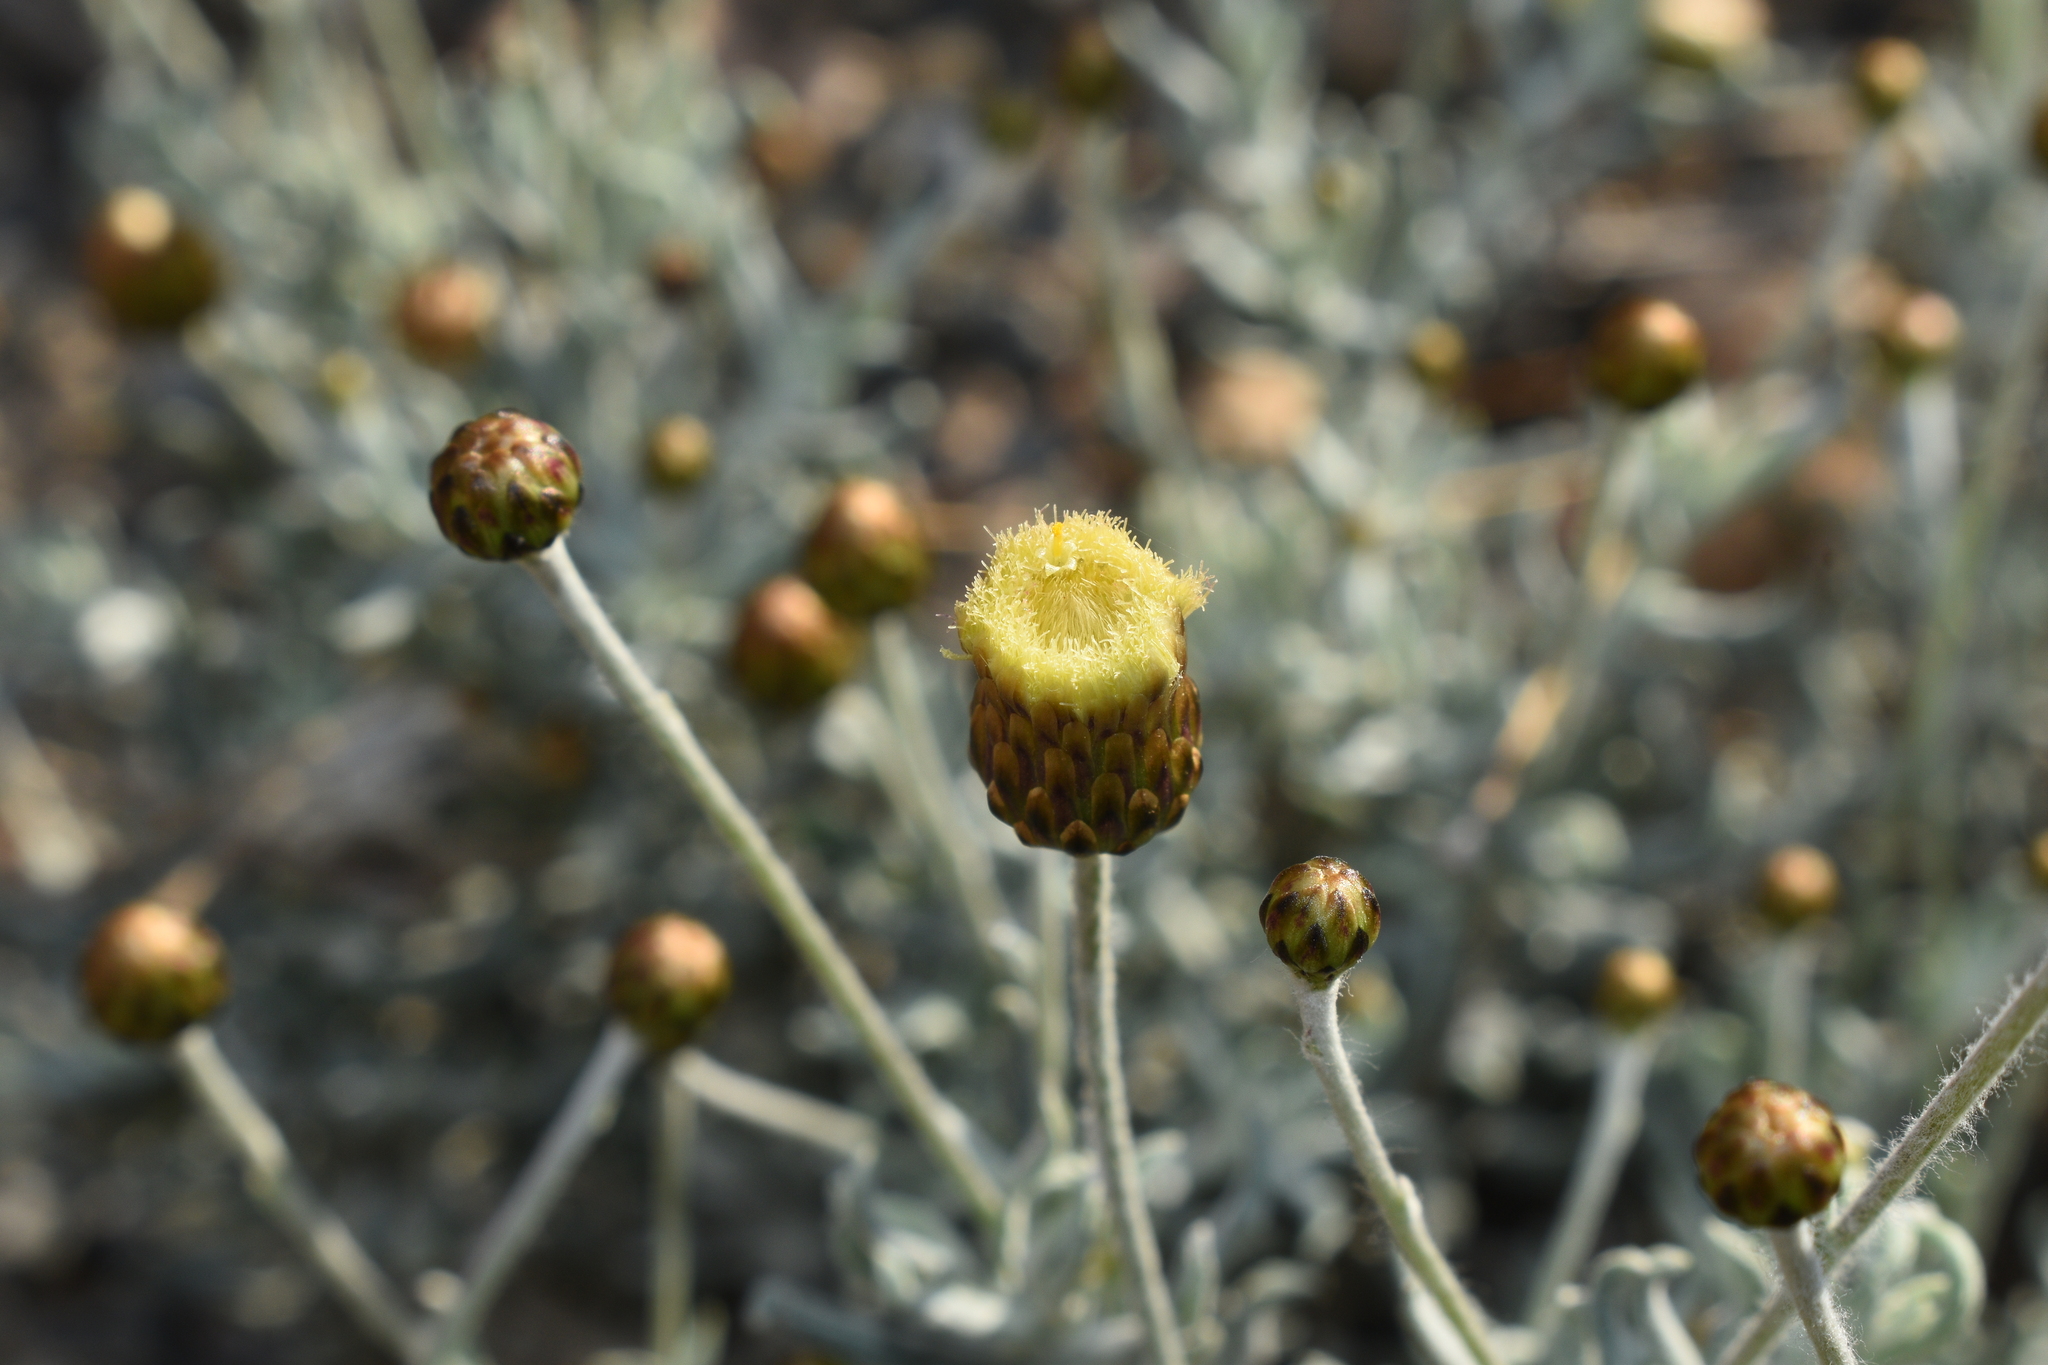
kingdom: Plantae
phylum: Tracheophyta
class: Magnoliopsida
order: Asterales
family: Asteraceae
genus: Phagnalon
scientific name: Phagnalon rupestre
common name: Rock phagnalon
